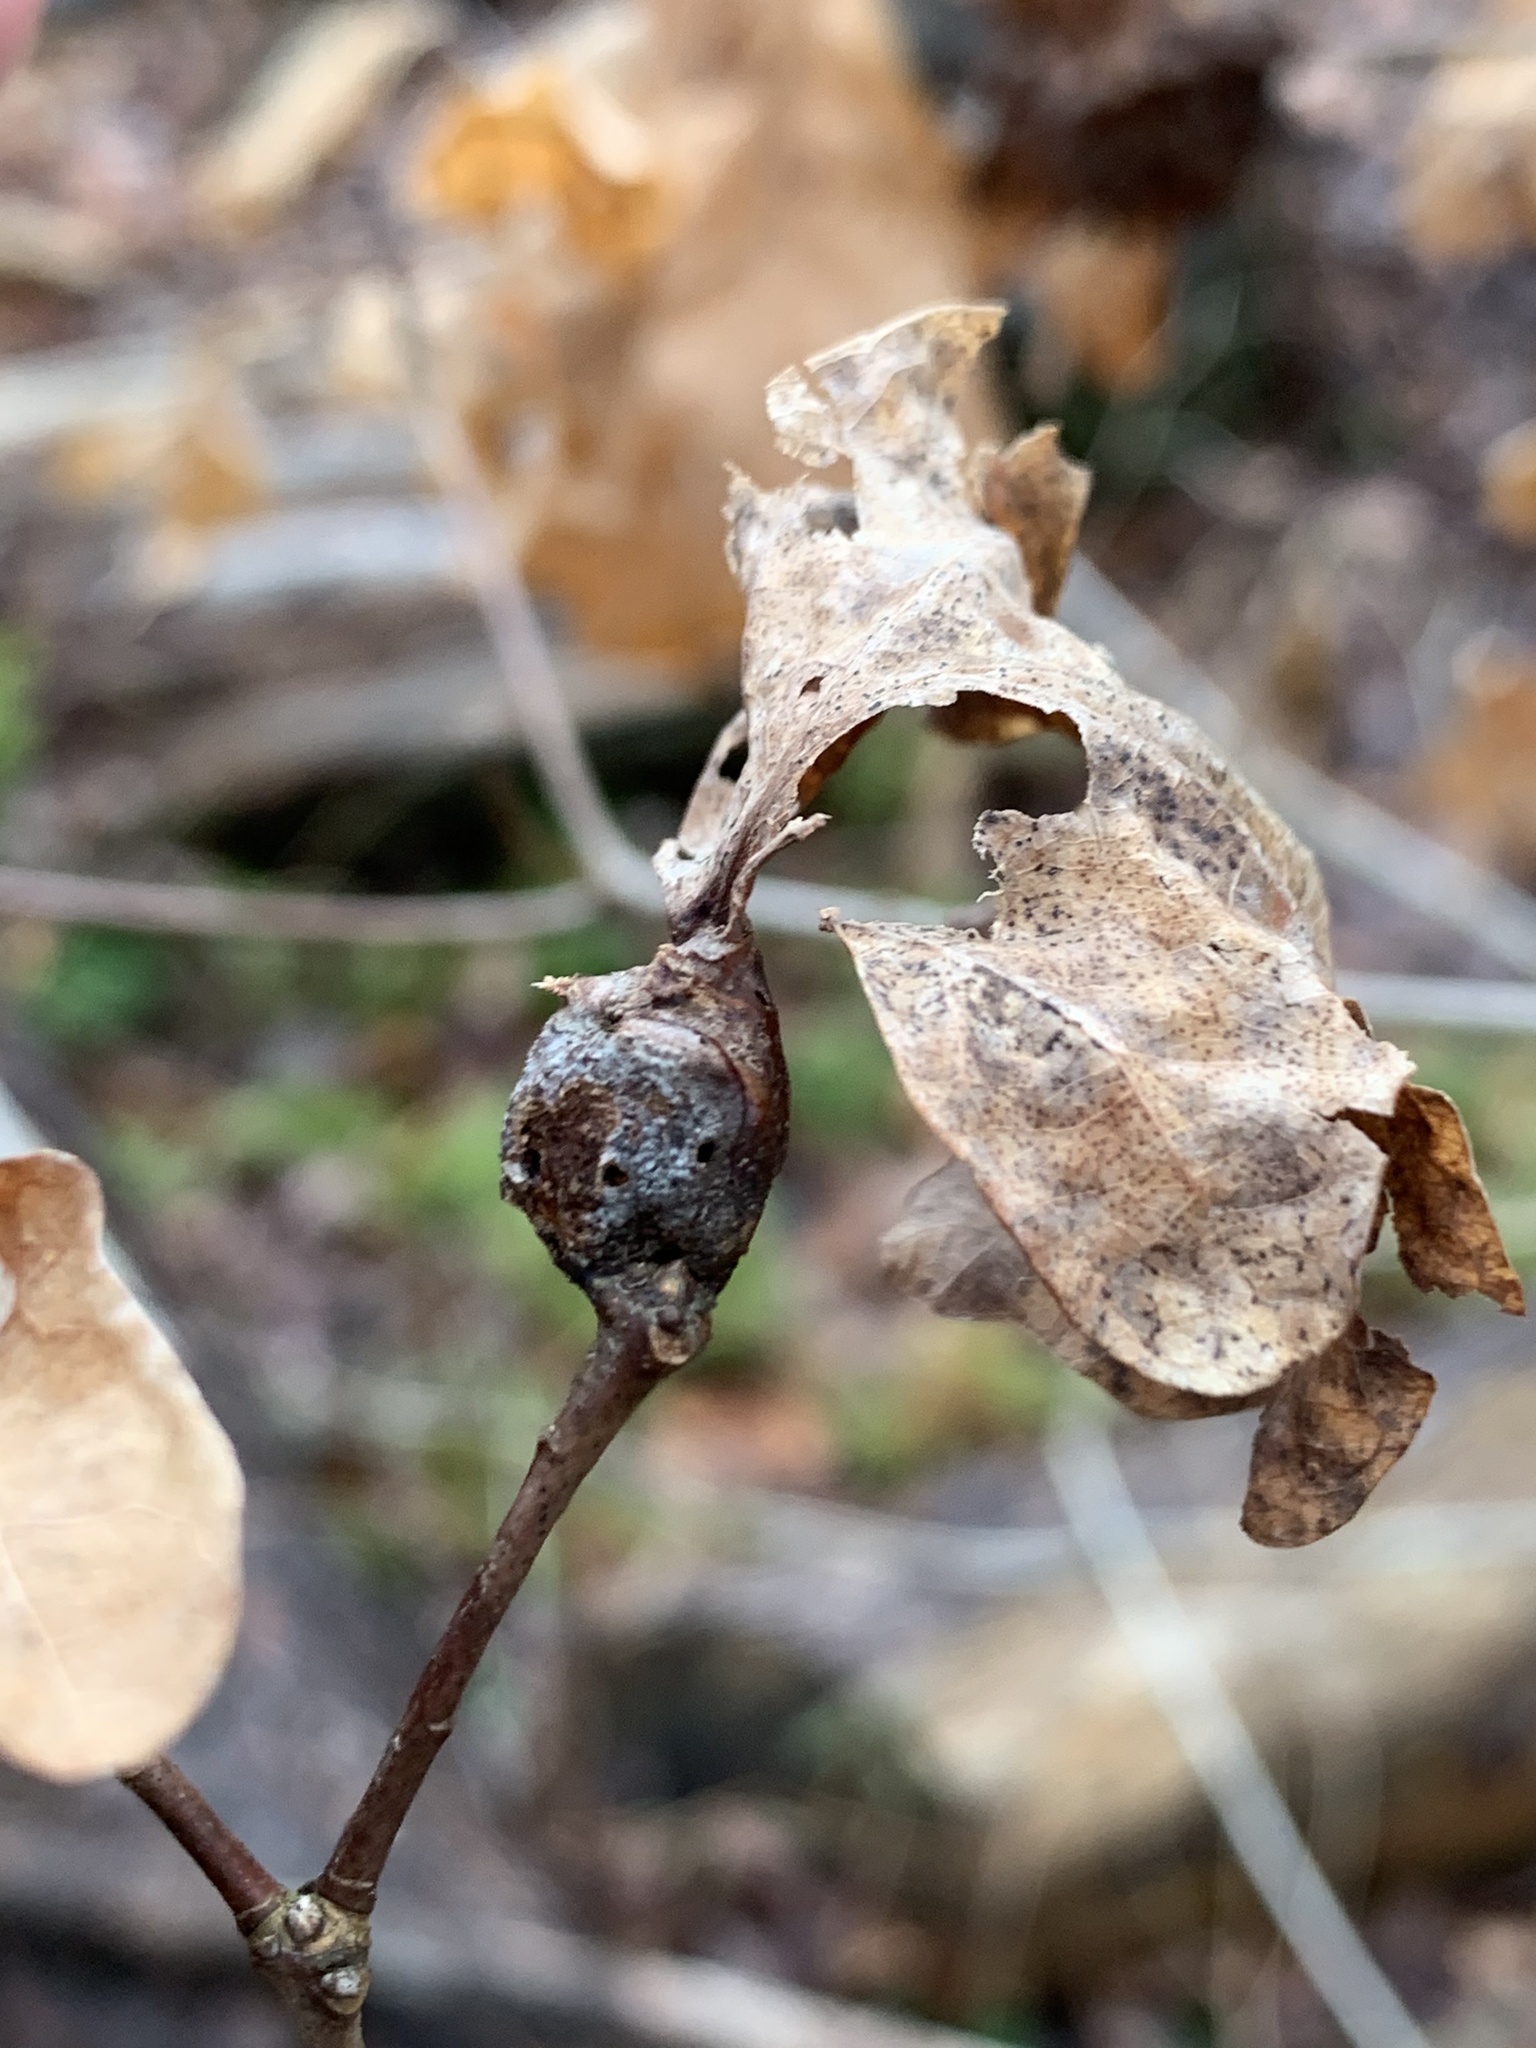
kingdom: Animalia
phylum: Arthropoda
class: Insecta
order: Hymenoptera
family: Cynipidae
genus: Callirhytis
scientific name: Callirhytis clavula
